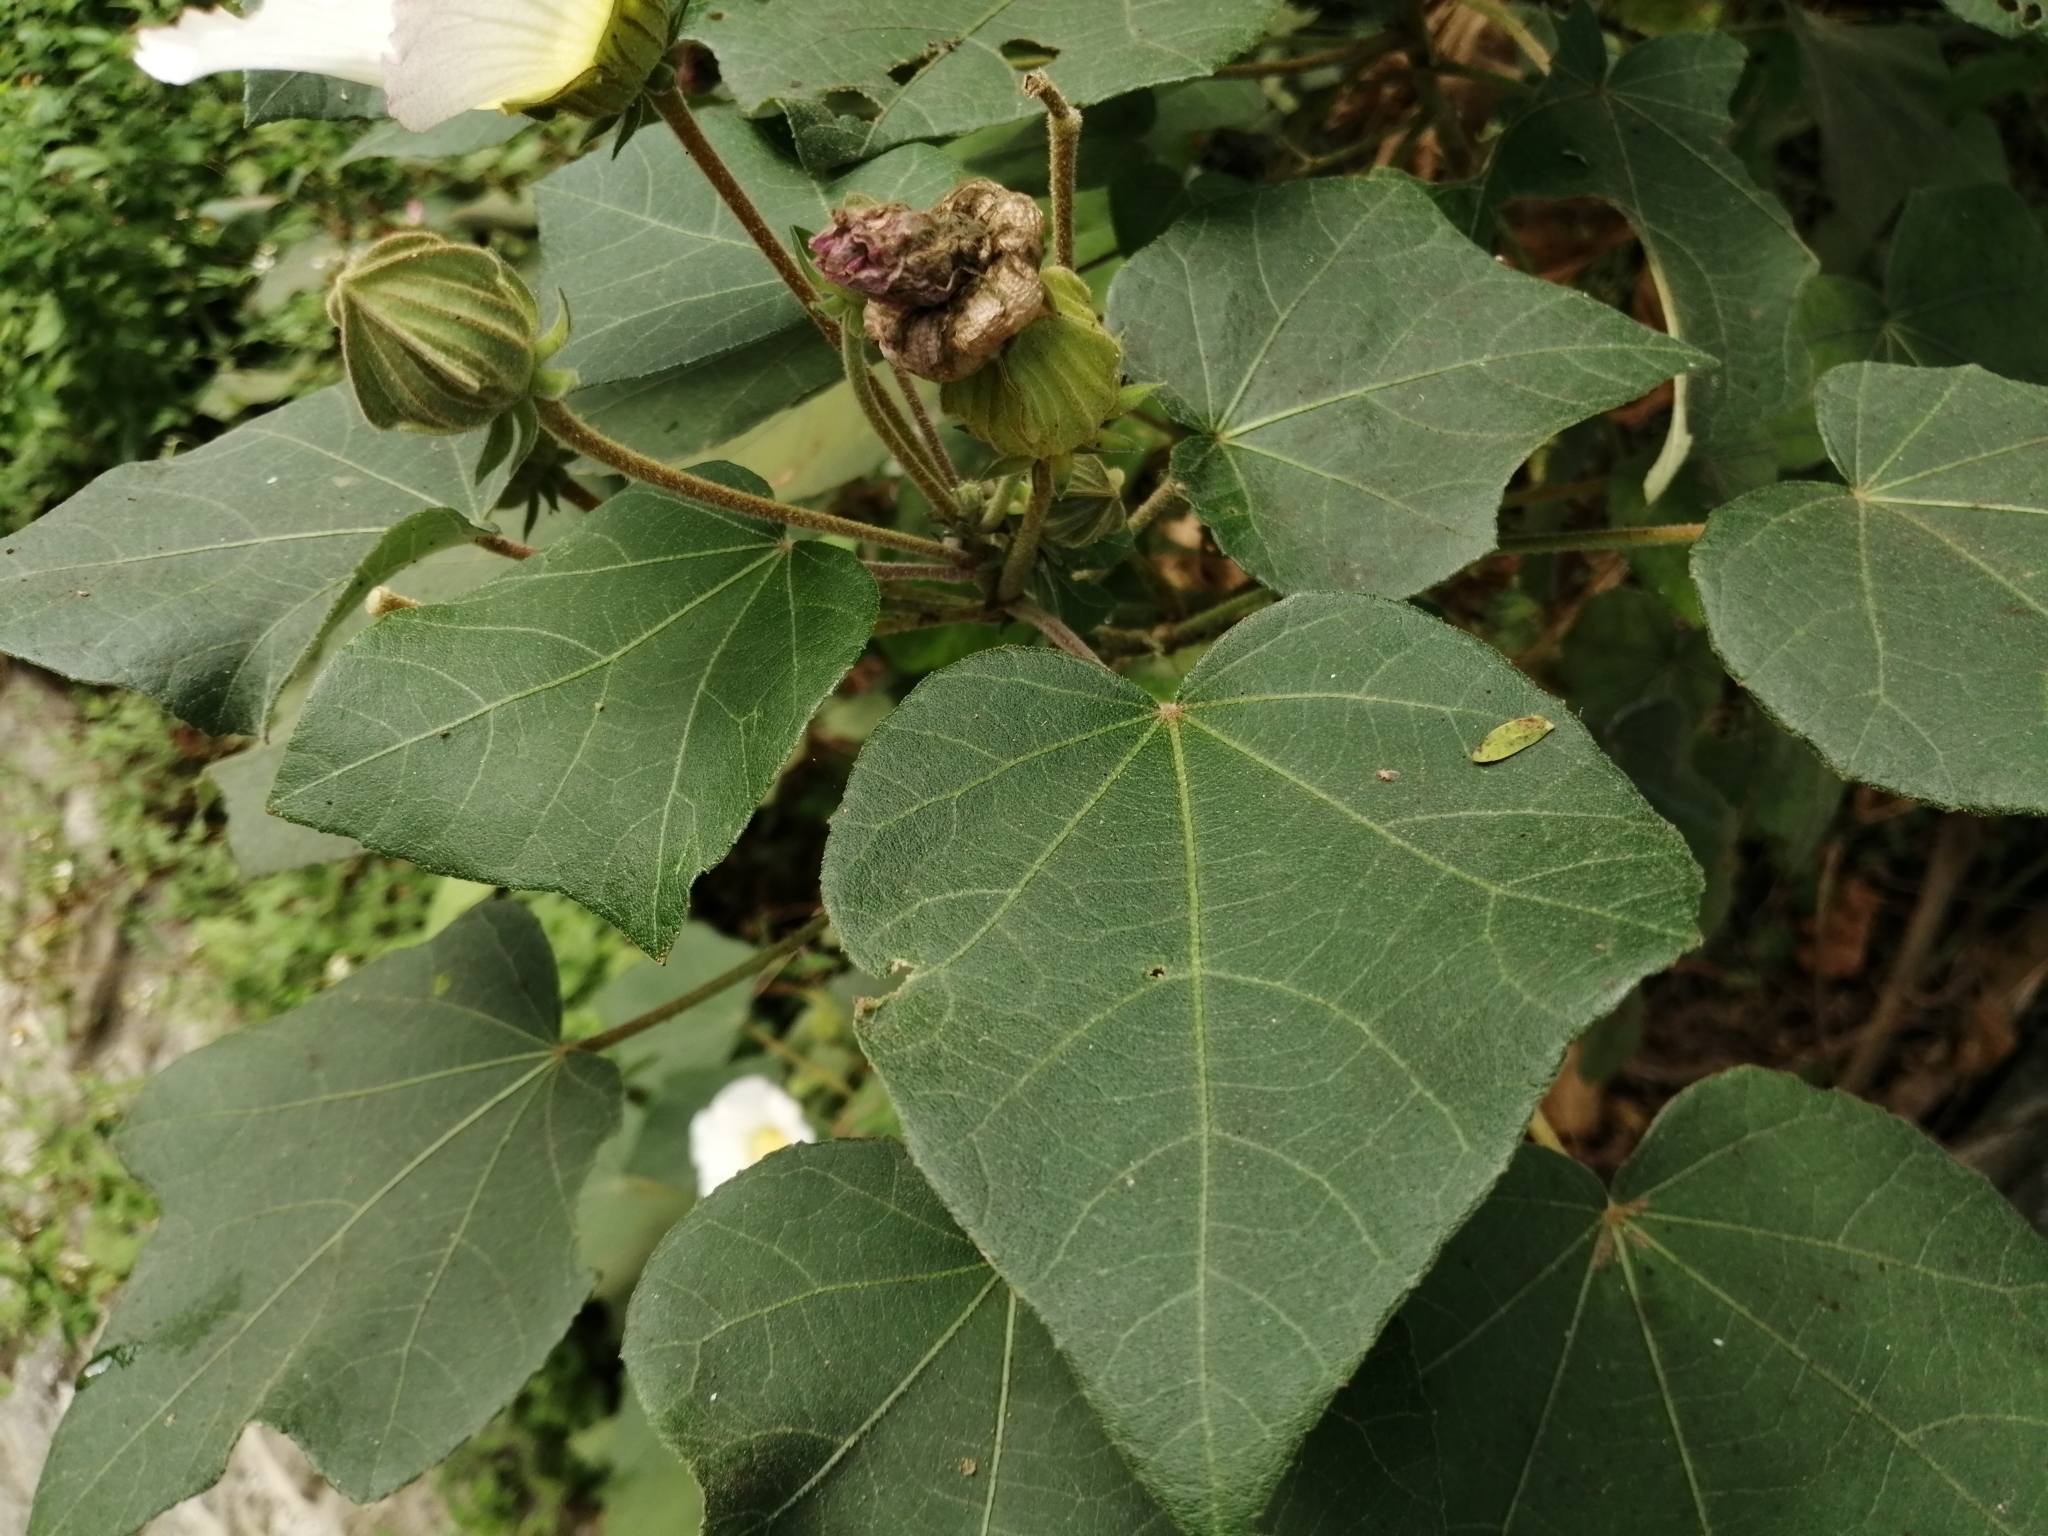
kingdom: Plantae
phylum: Tracheophyta
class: Magnoliopsida
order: Malvales
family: Malvaceae
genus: Hibiscus
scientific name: Hibiscus taiwanensis
